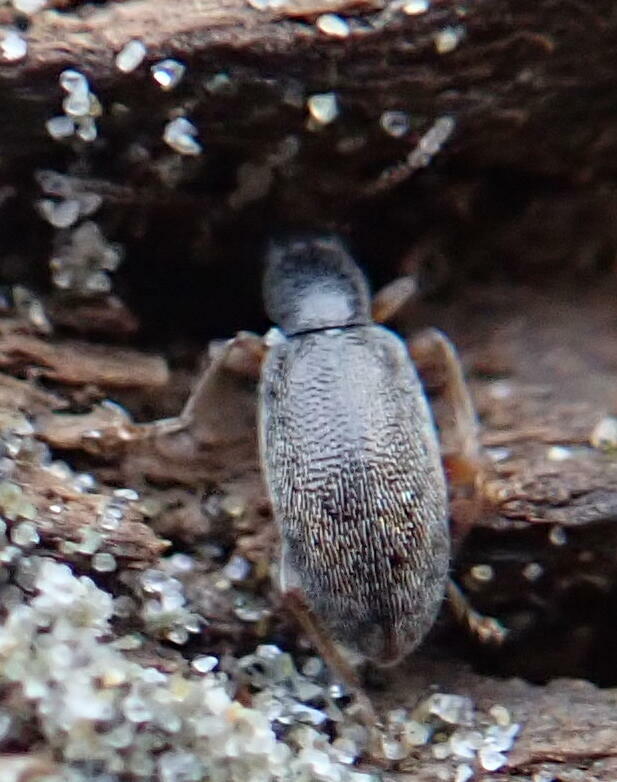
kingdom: Animalia
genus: Lagrioda
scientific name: Lagrioda brounii
